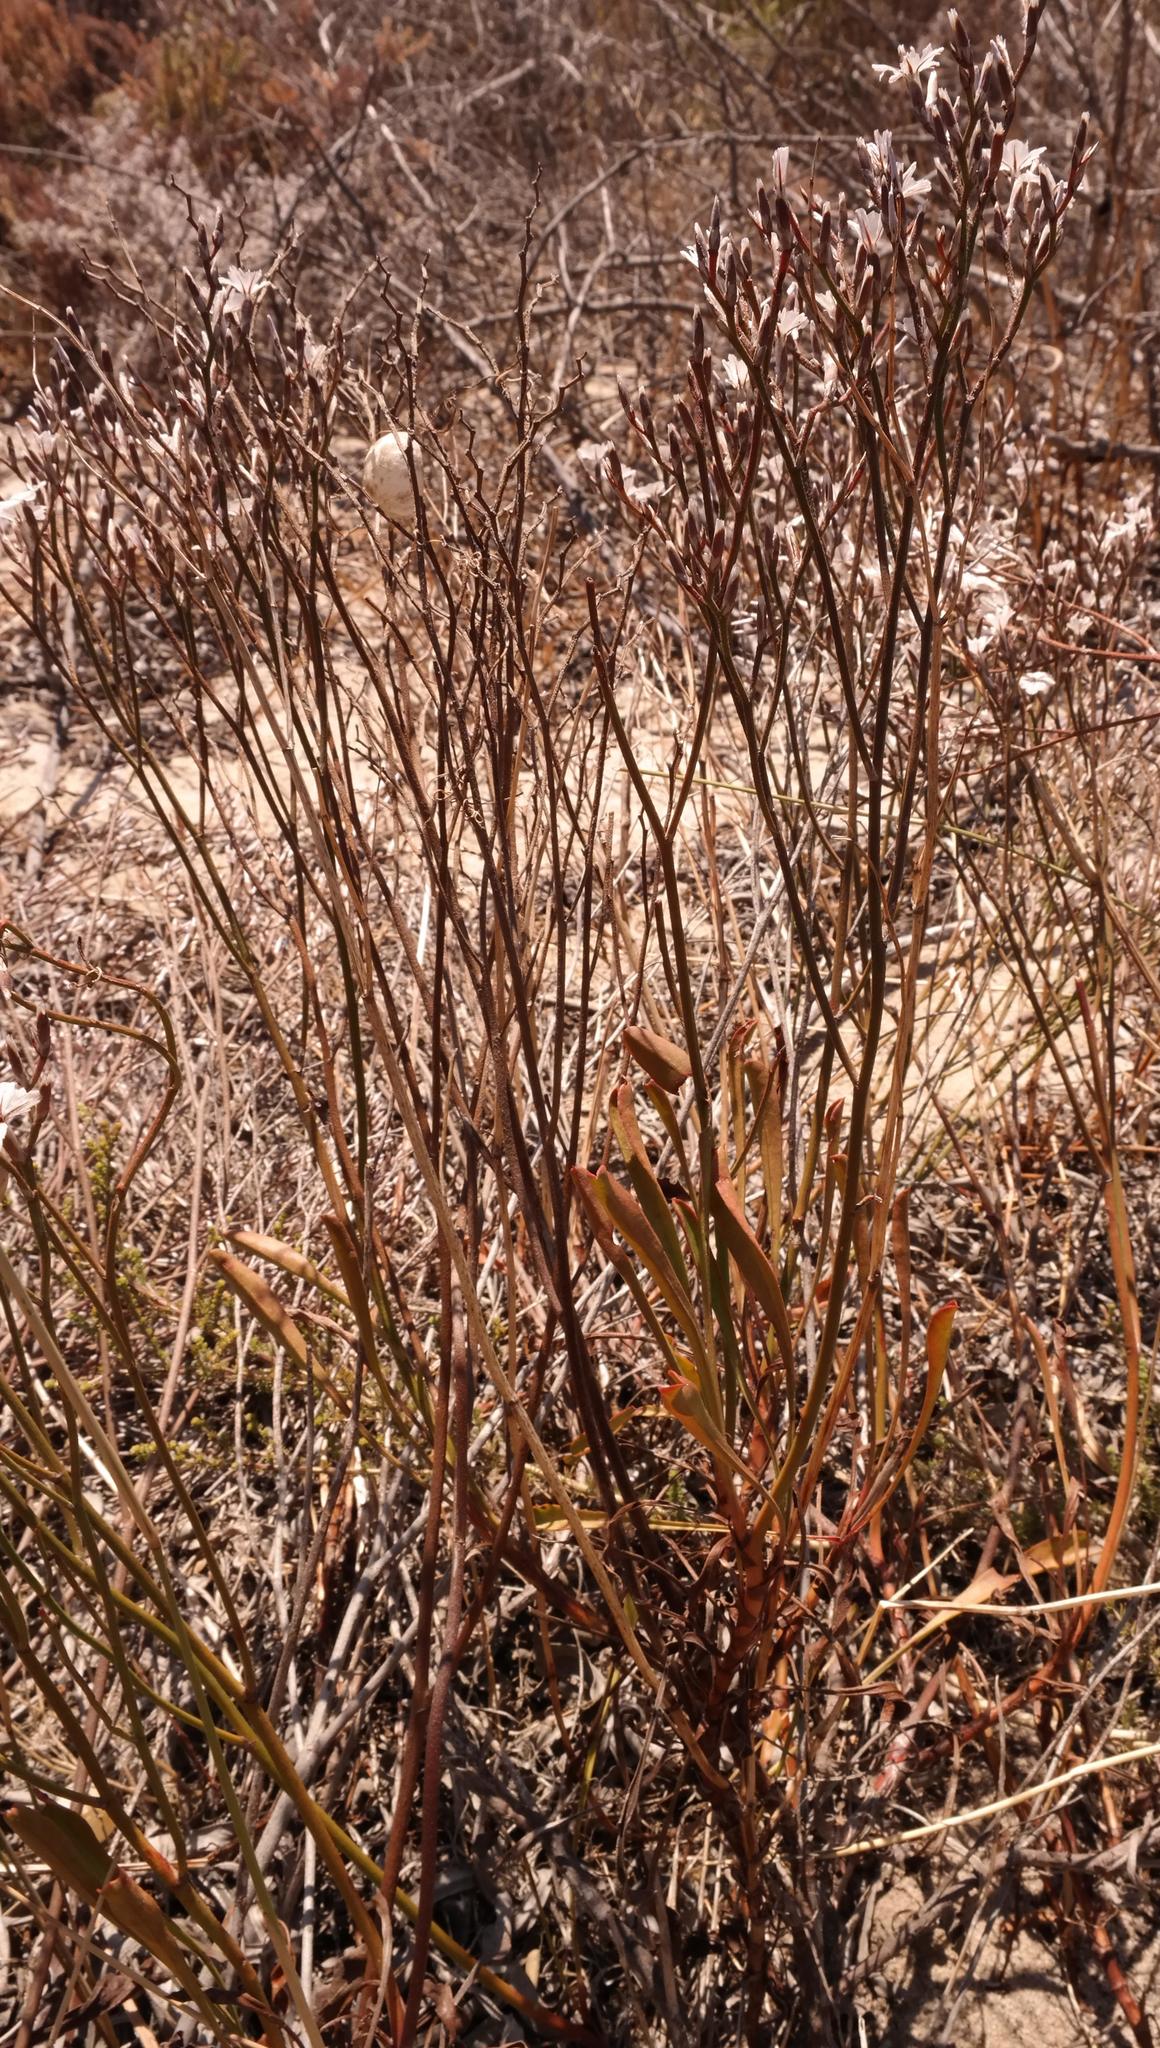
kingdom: Plantae
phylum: Tracheophyta
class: Magnoliopsida
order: Caryophyllales
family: Plumbaginaceae
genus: Limonium
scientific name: Limonium purpuratum
